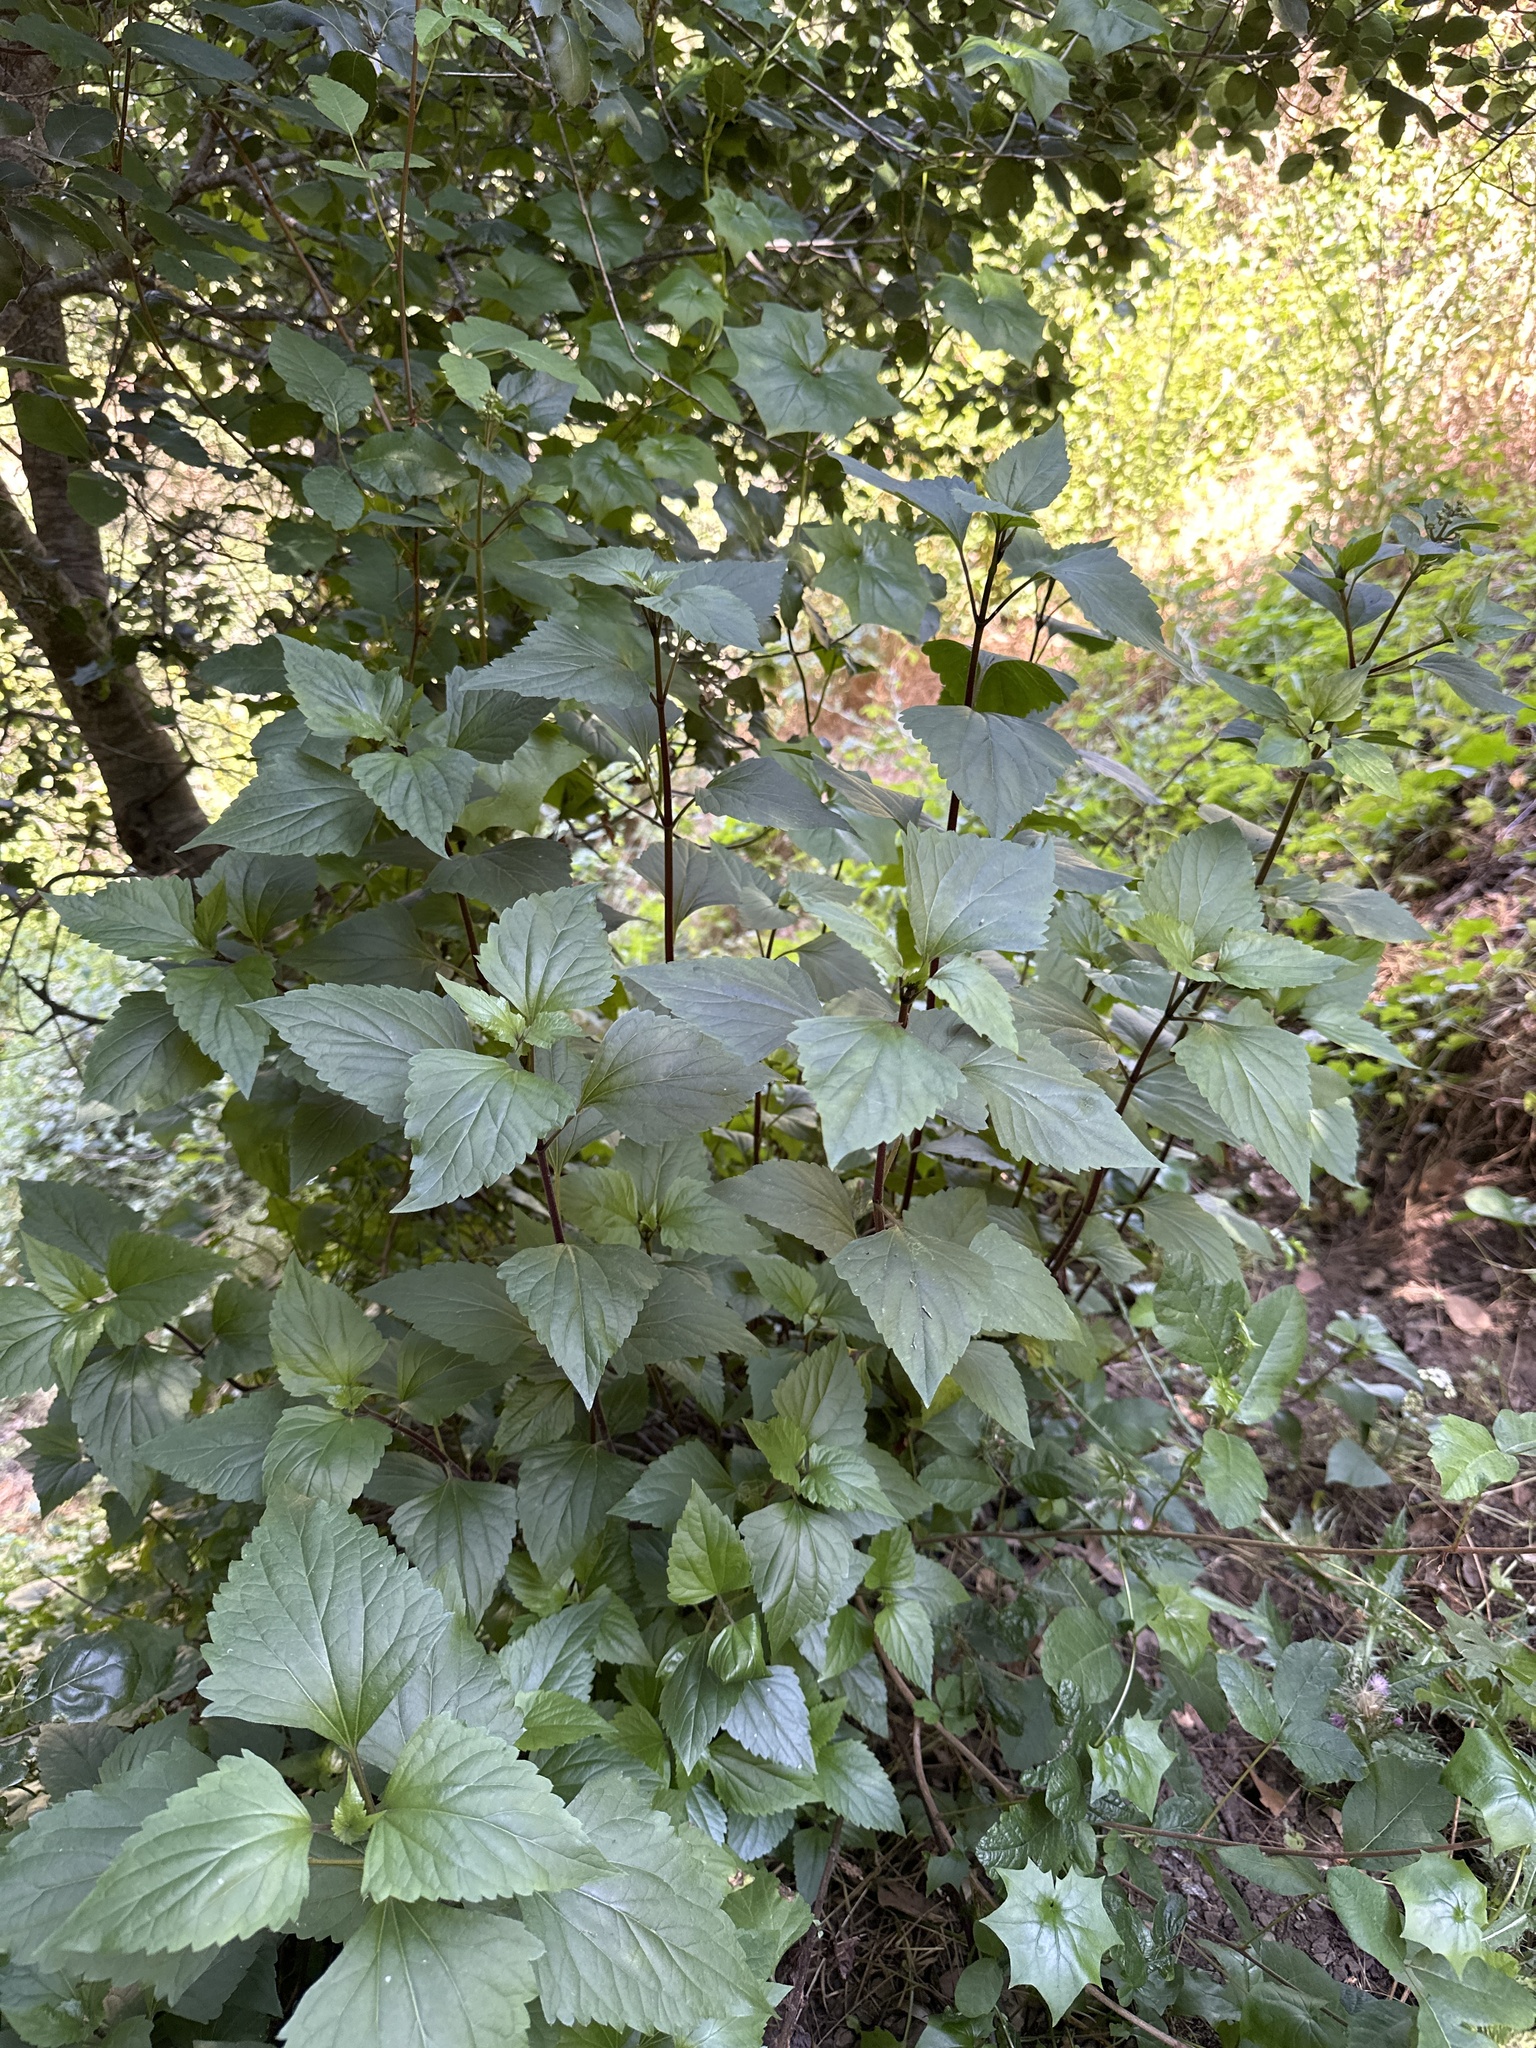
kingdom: Plantae
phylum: Tracheophyta
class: Magnoliopsida
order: Asterales
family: Asteraceae
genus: Ageratina
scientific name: Ageratina adenophora
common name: Sticky snakeroot
